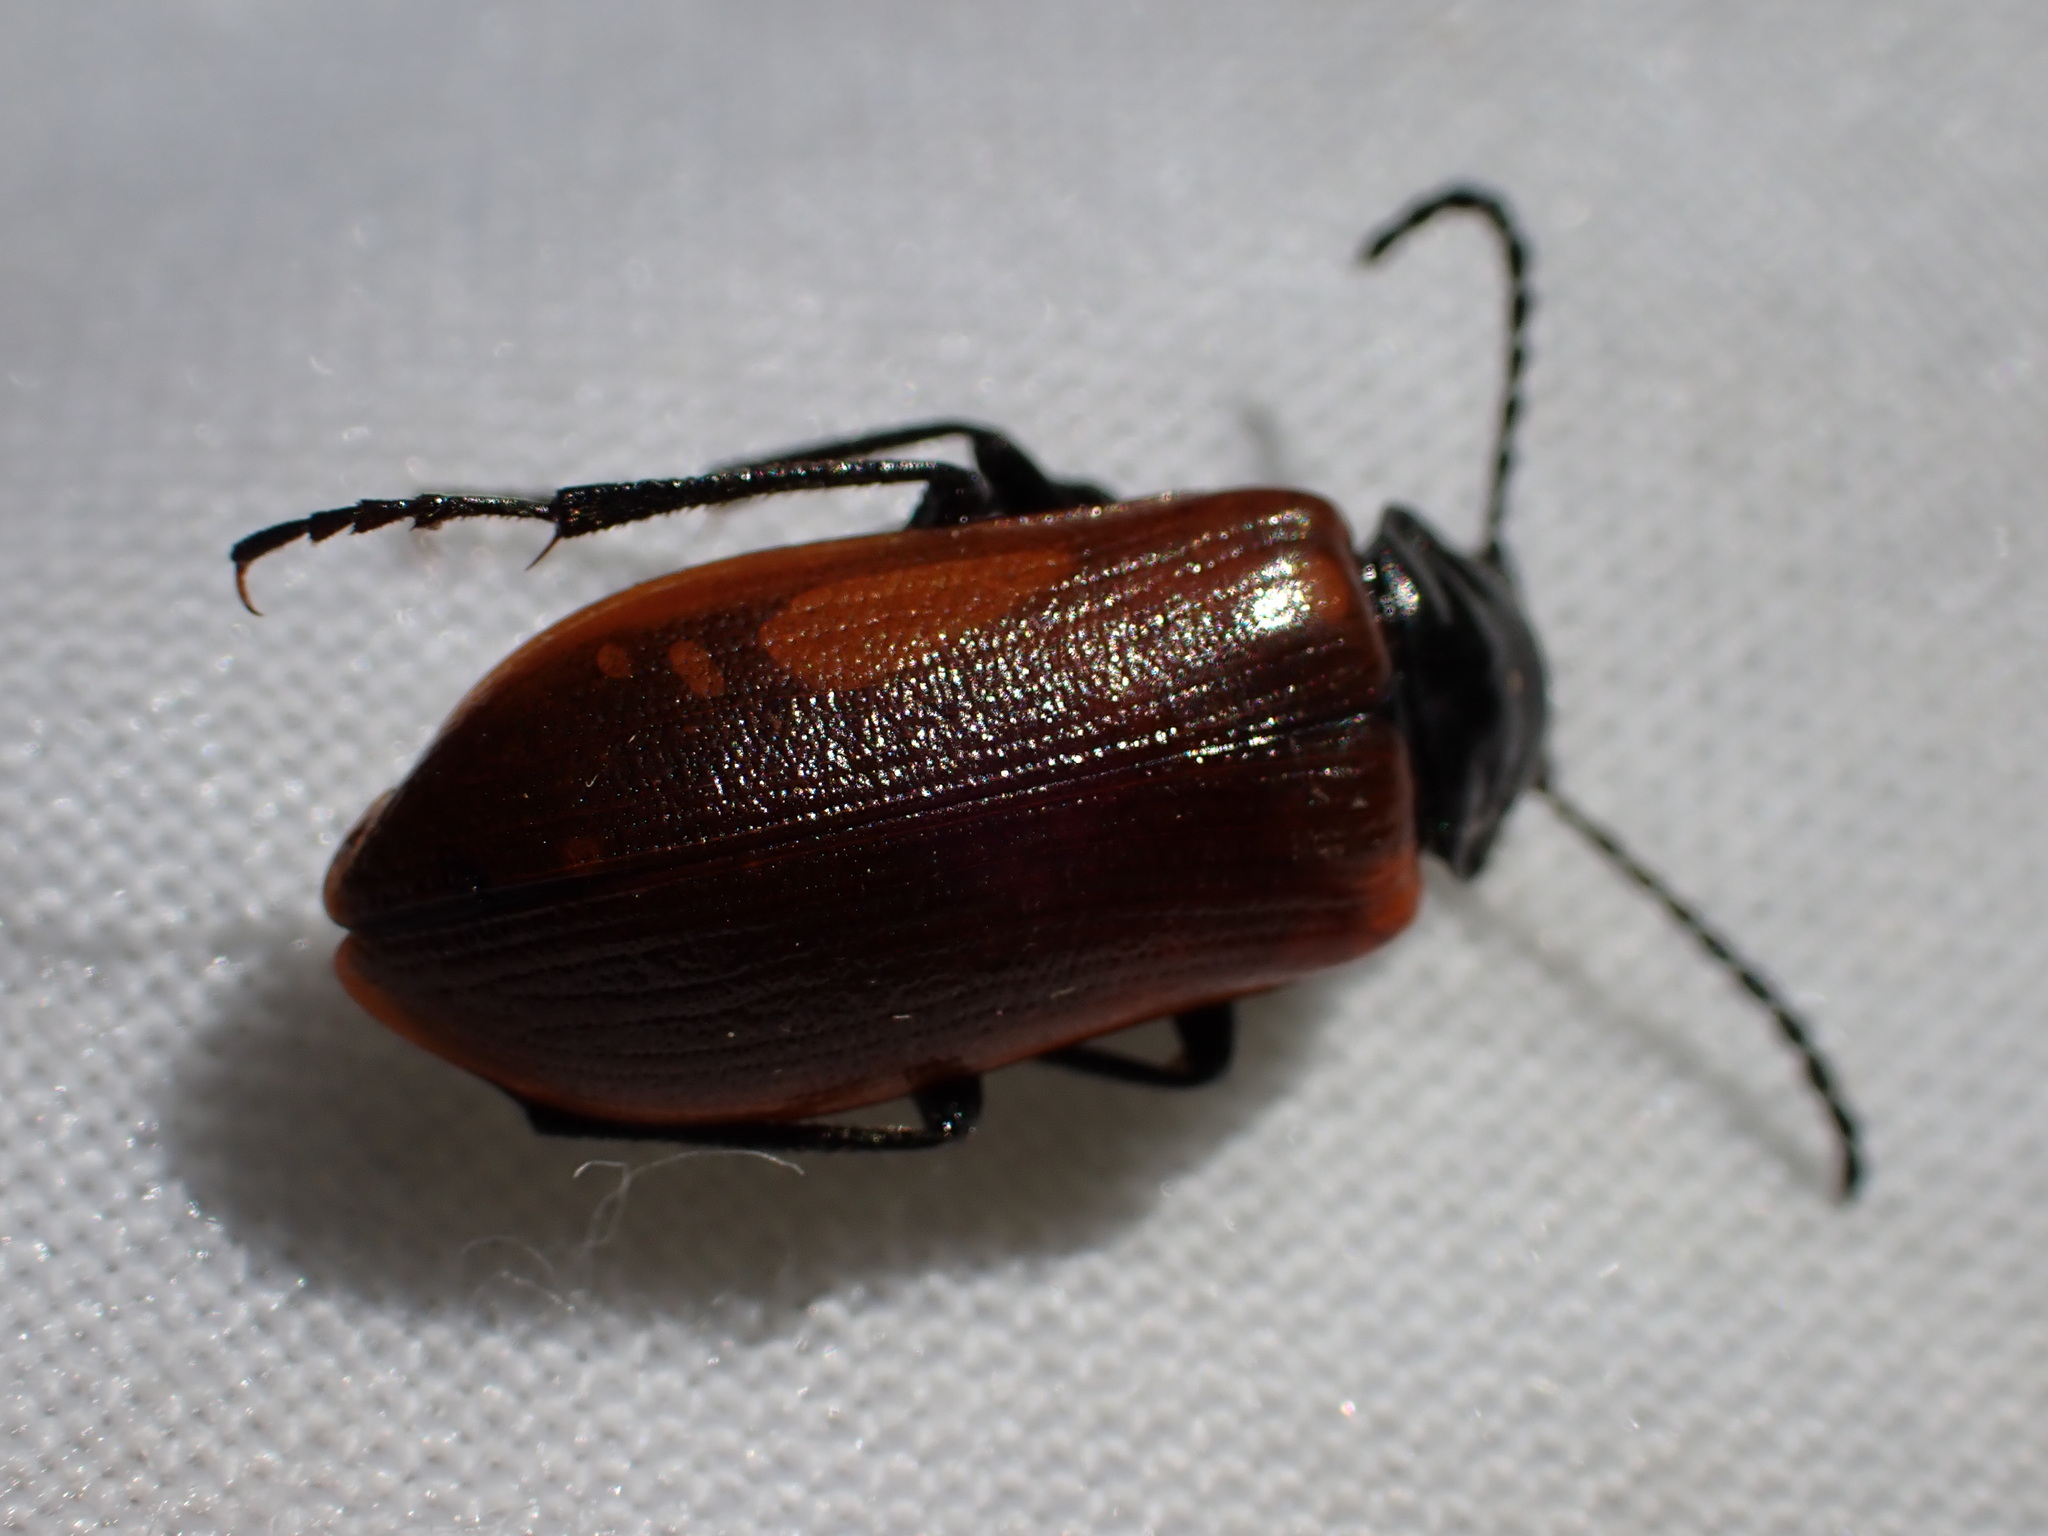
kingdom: Animalia
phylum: Arthropoda
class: Insecta
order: Coleoptera
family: Tenebrionidae
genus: Omophlus
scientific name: Omophlus lepturoides
